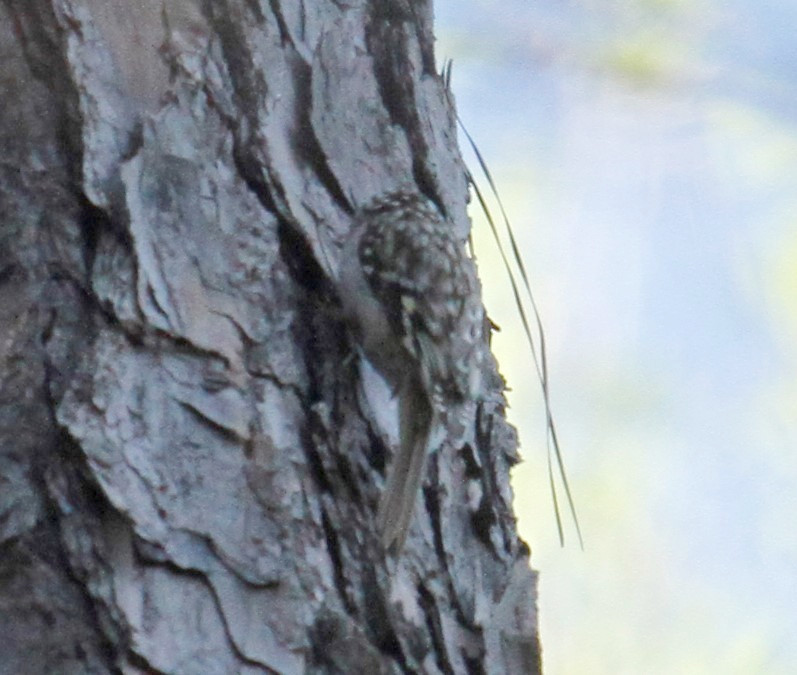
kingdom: Animalia
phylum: Chordata
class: Aves
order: Passeriformes
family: Certhiidae
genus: Certhia
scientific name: Certhia americana
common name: Brown creeper
